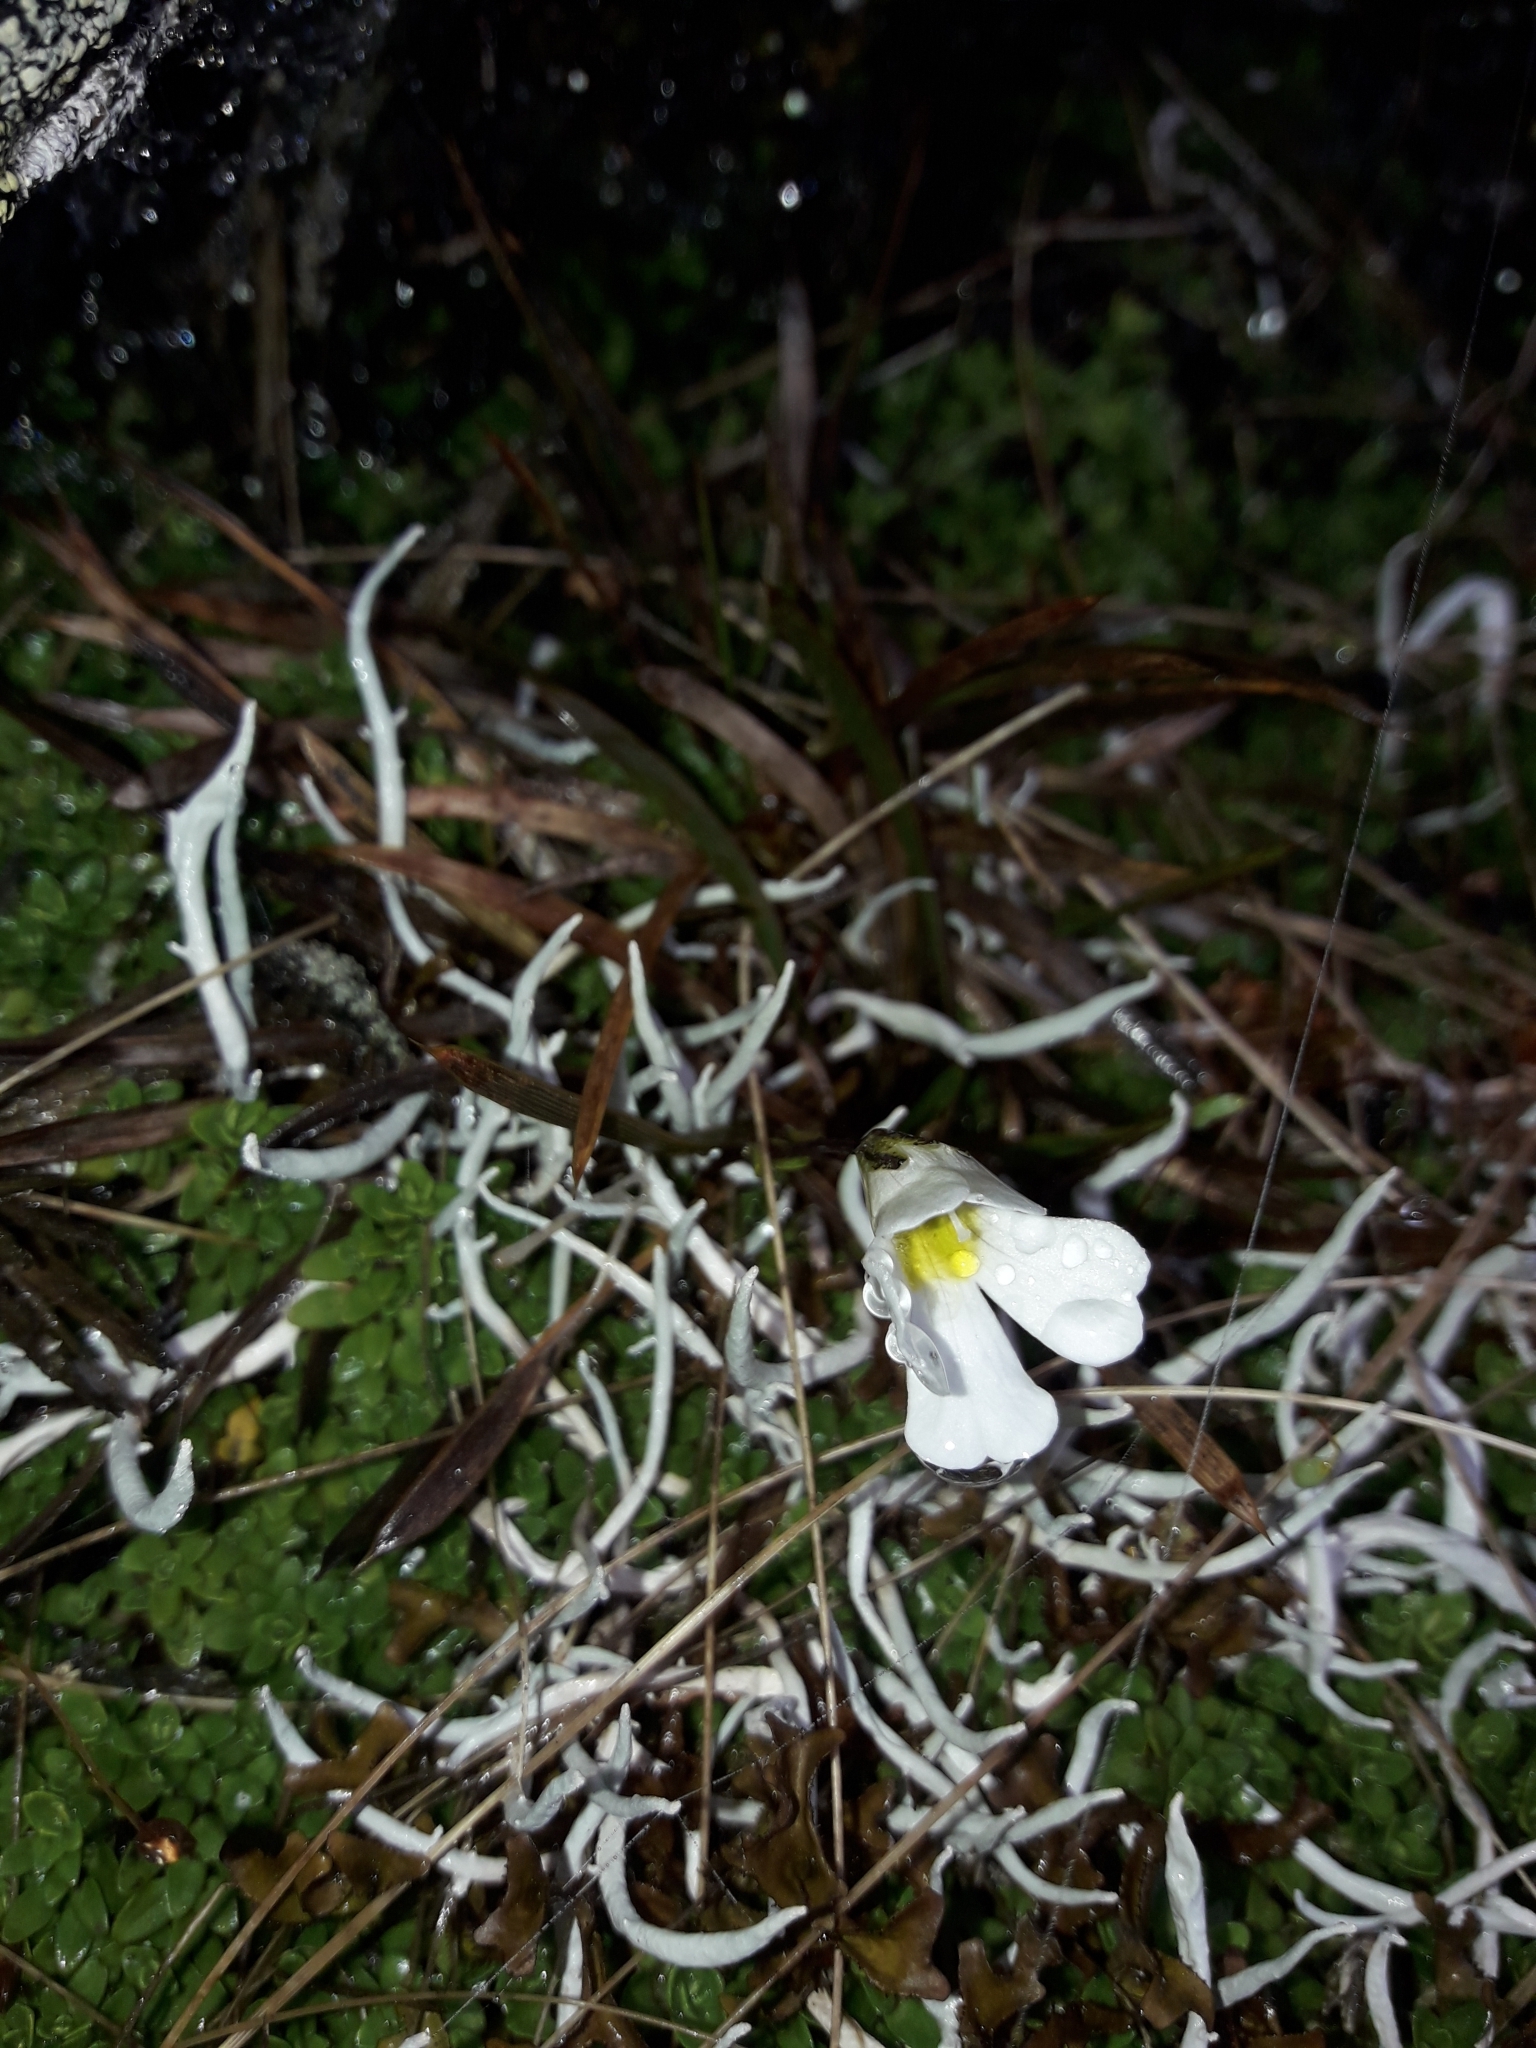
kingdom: Plantae
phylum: Tracheophyta
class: Magnoliopsida
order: Lamiales
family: Plantaginaceae
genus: Ourisia
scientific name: Ourisia caespitosa
